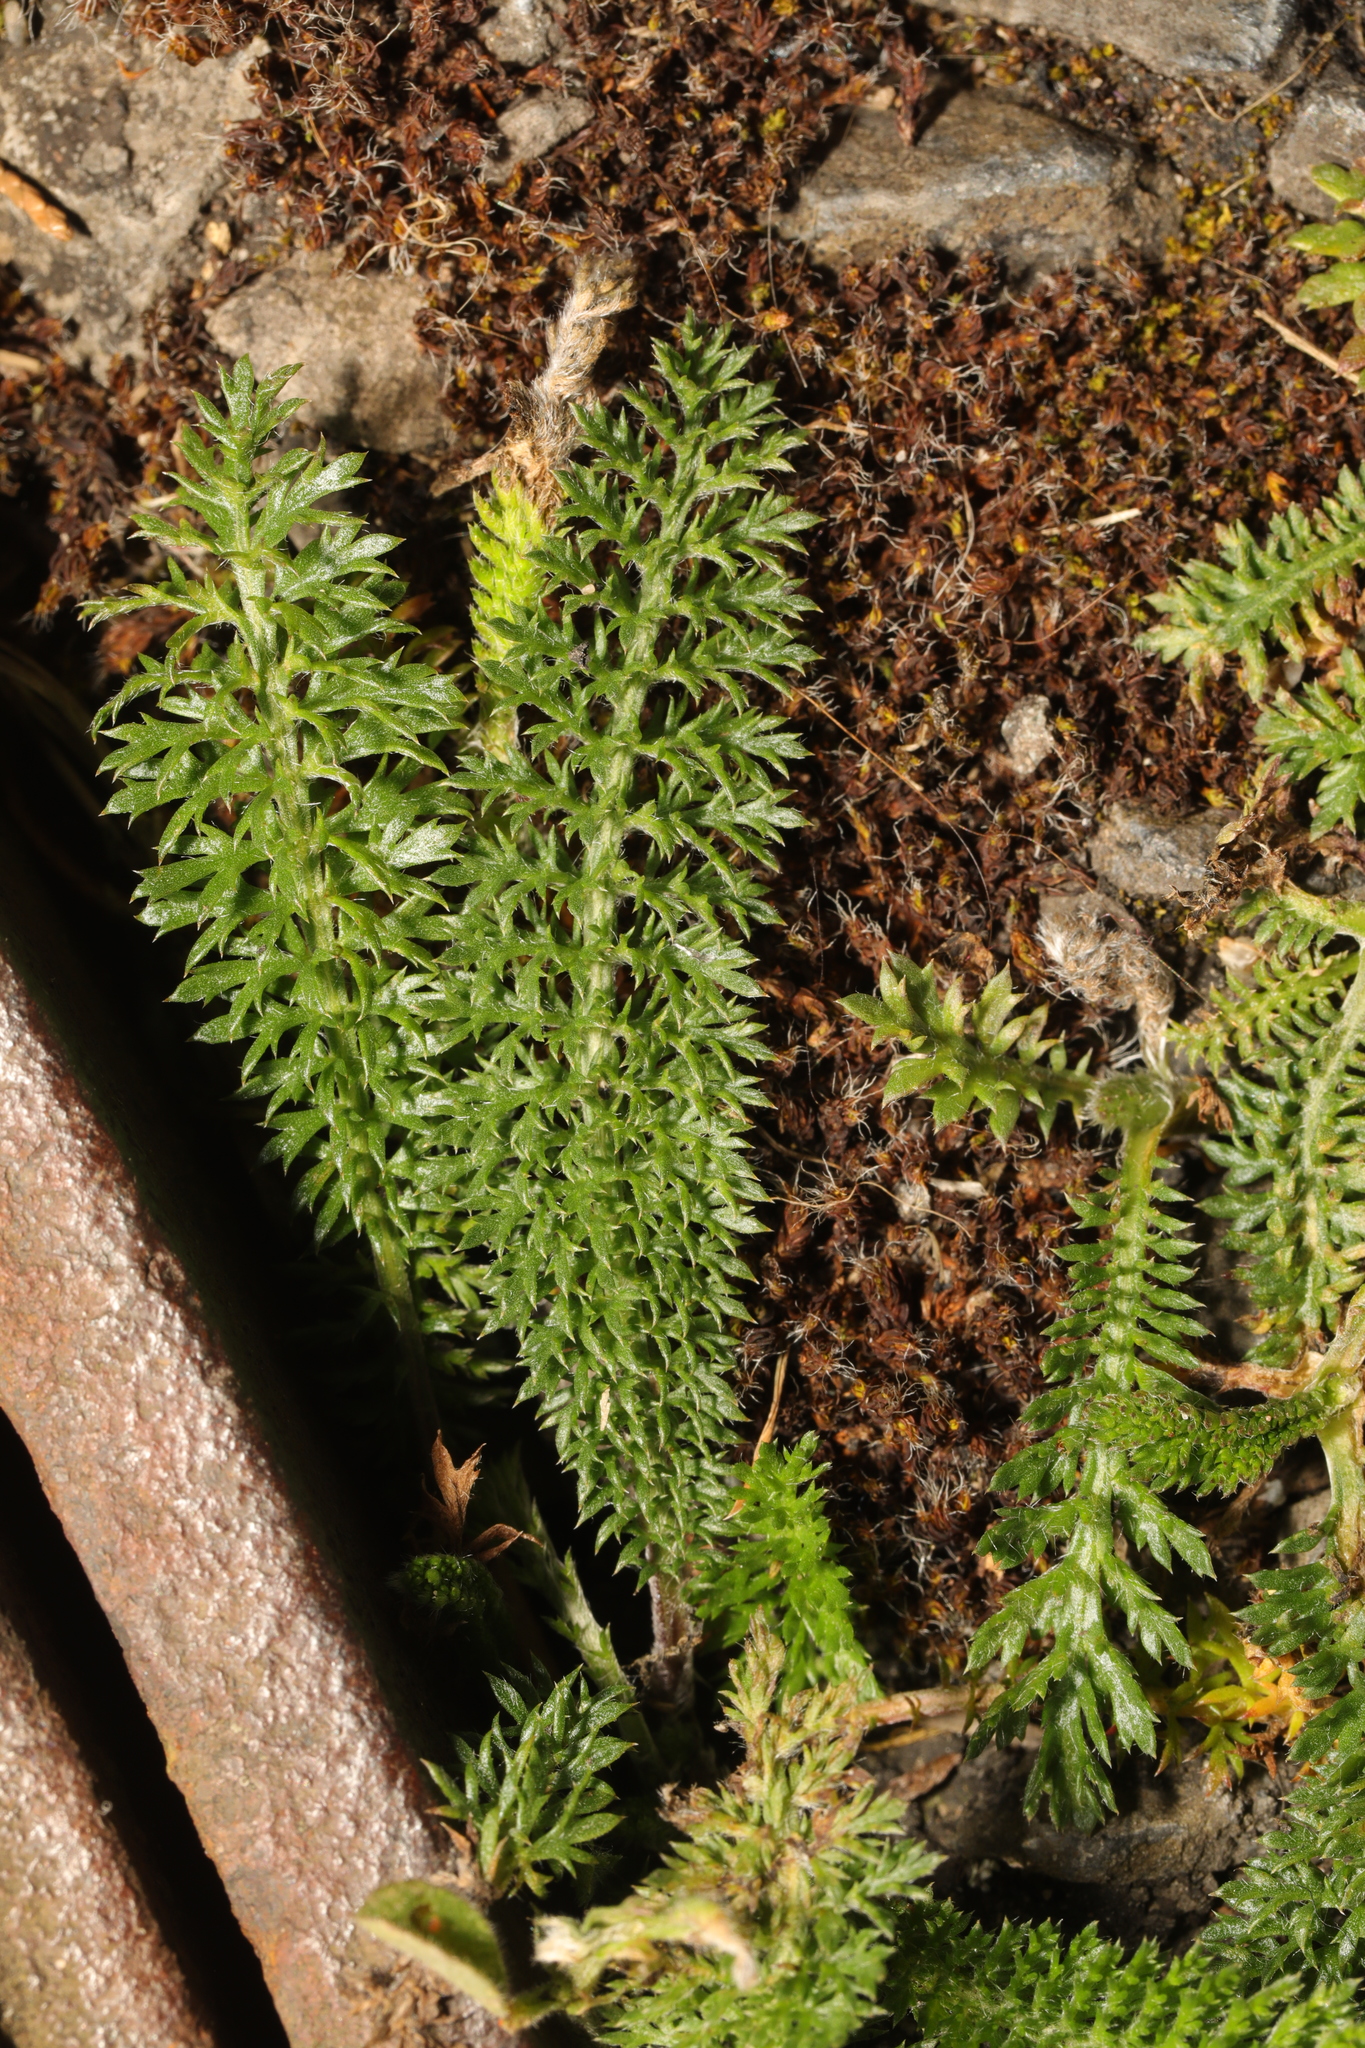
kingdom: Plantae
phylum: Tracheophyta
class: Magnoliopsida
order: Asterales
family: Asteraceae
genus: Achillea
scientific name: Achillea millefolium
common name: Yarrow
